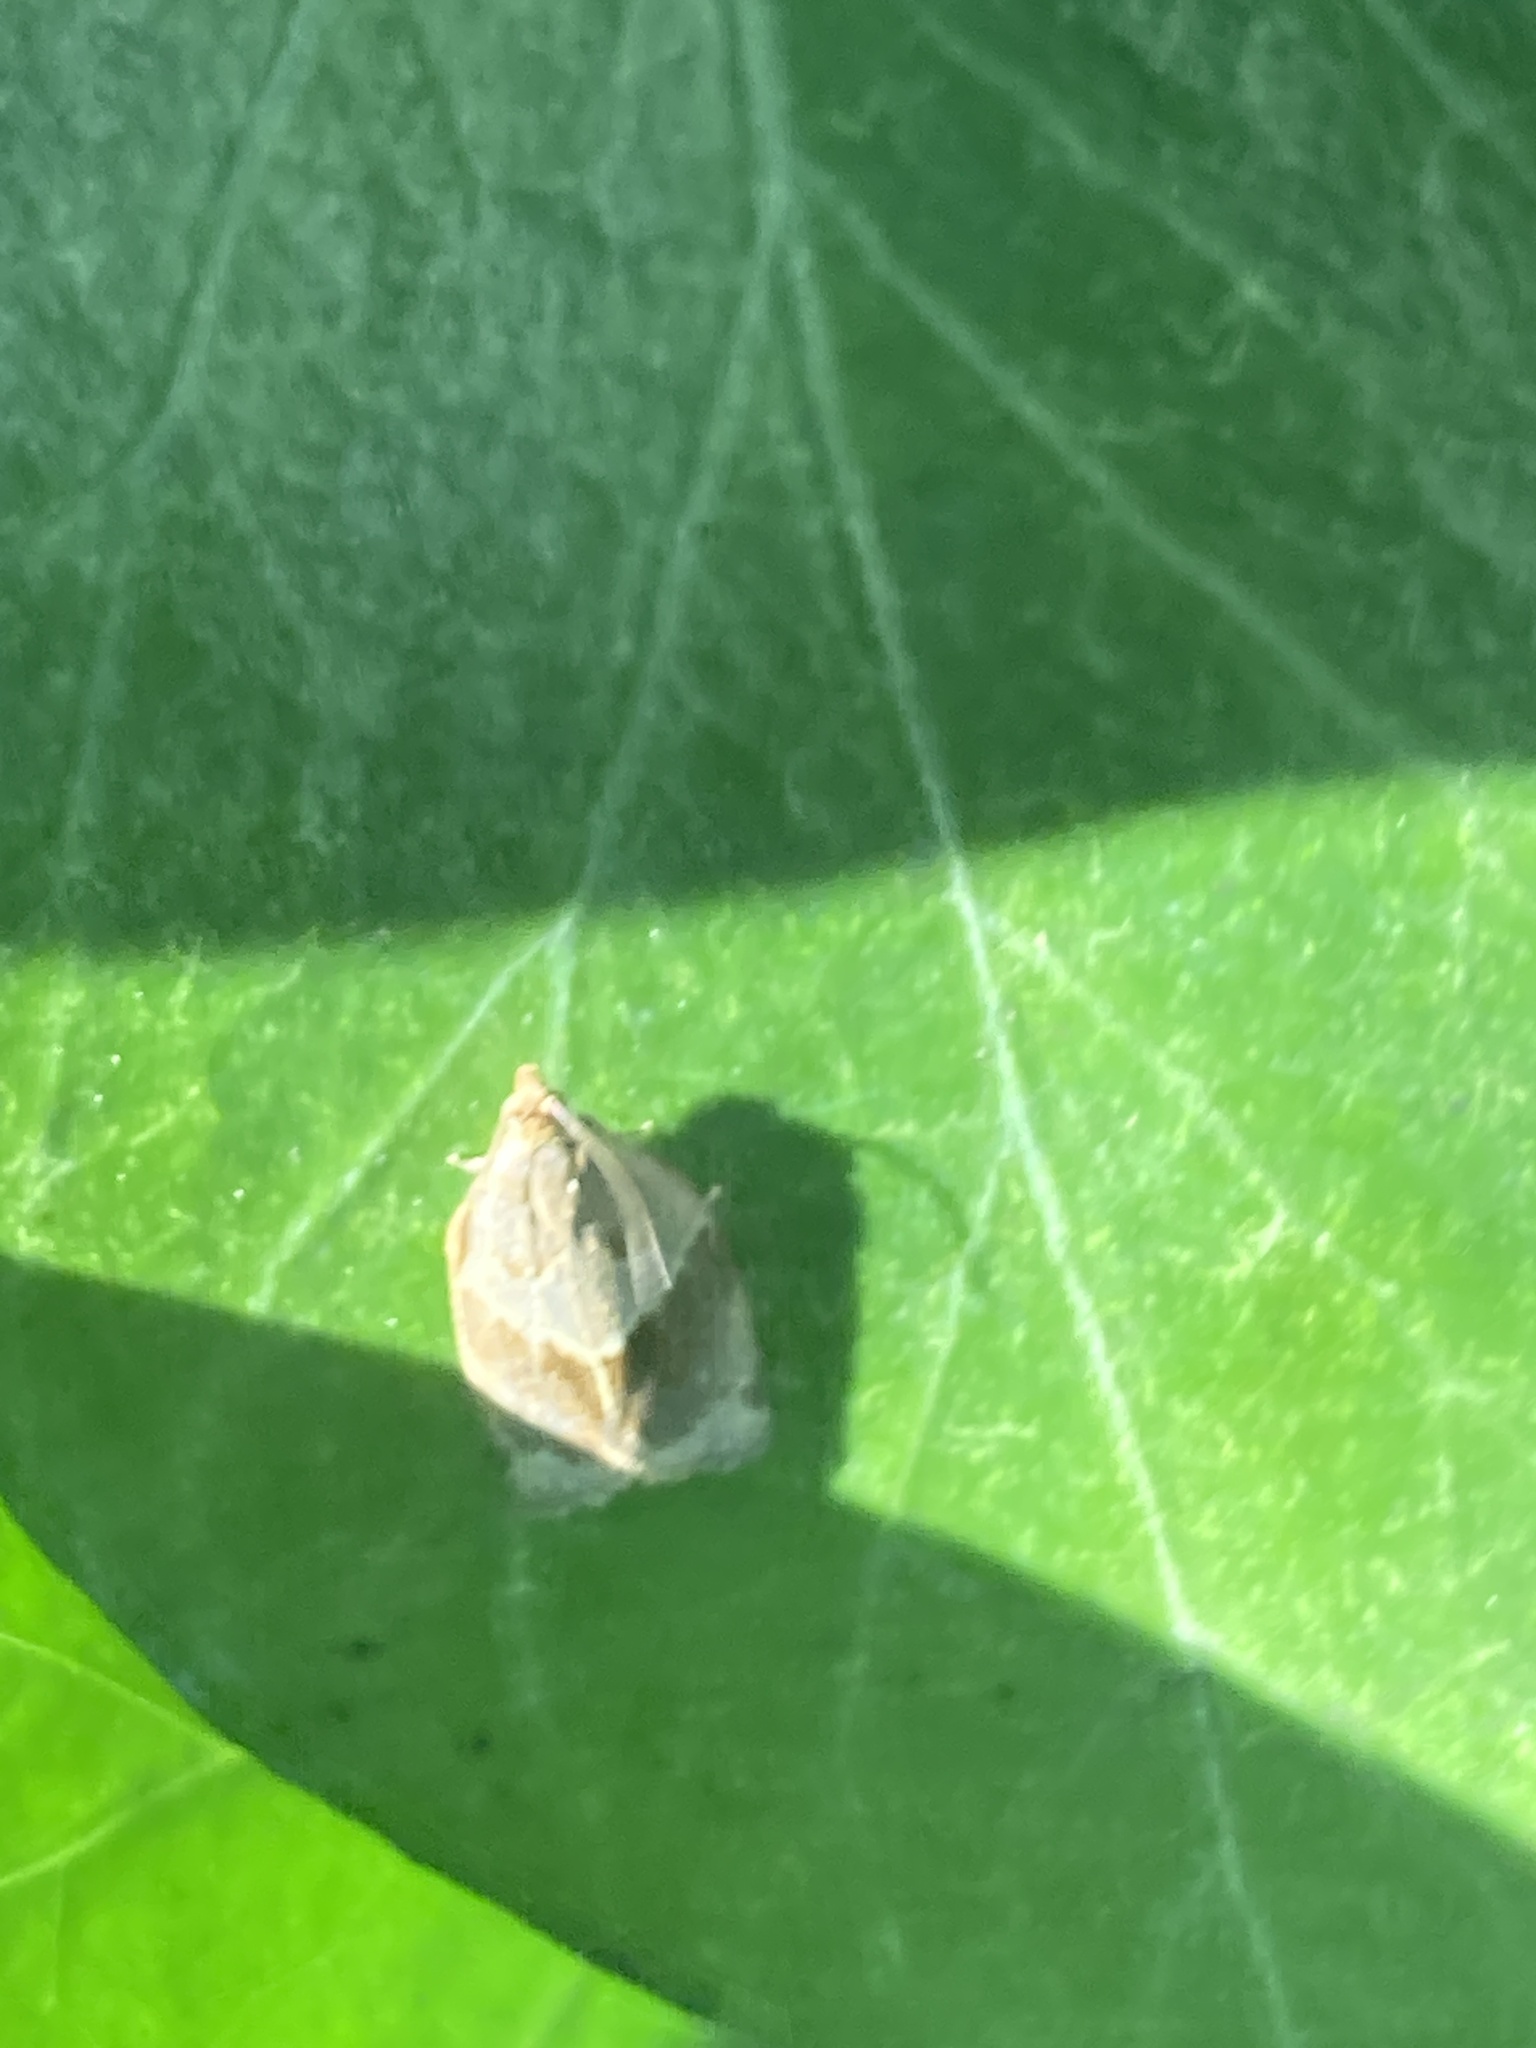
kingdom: Animalia
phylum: Arthropoda
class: Insecta
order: Lepidoptera
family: Tortricidae
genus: Clepsis
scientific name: Clepsis dumicolana
